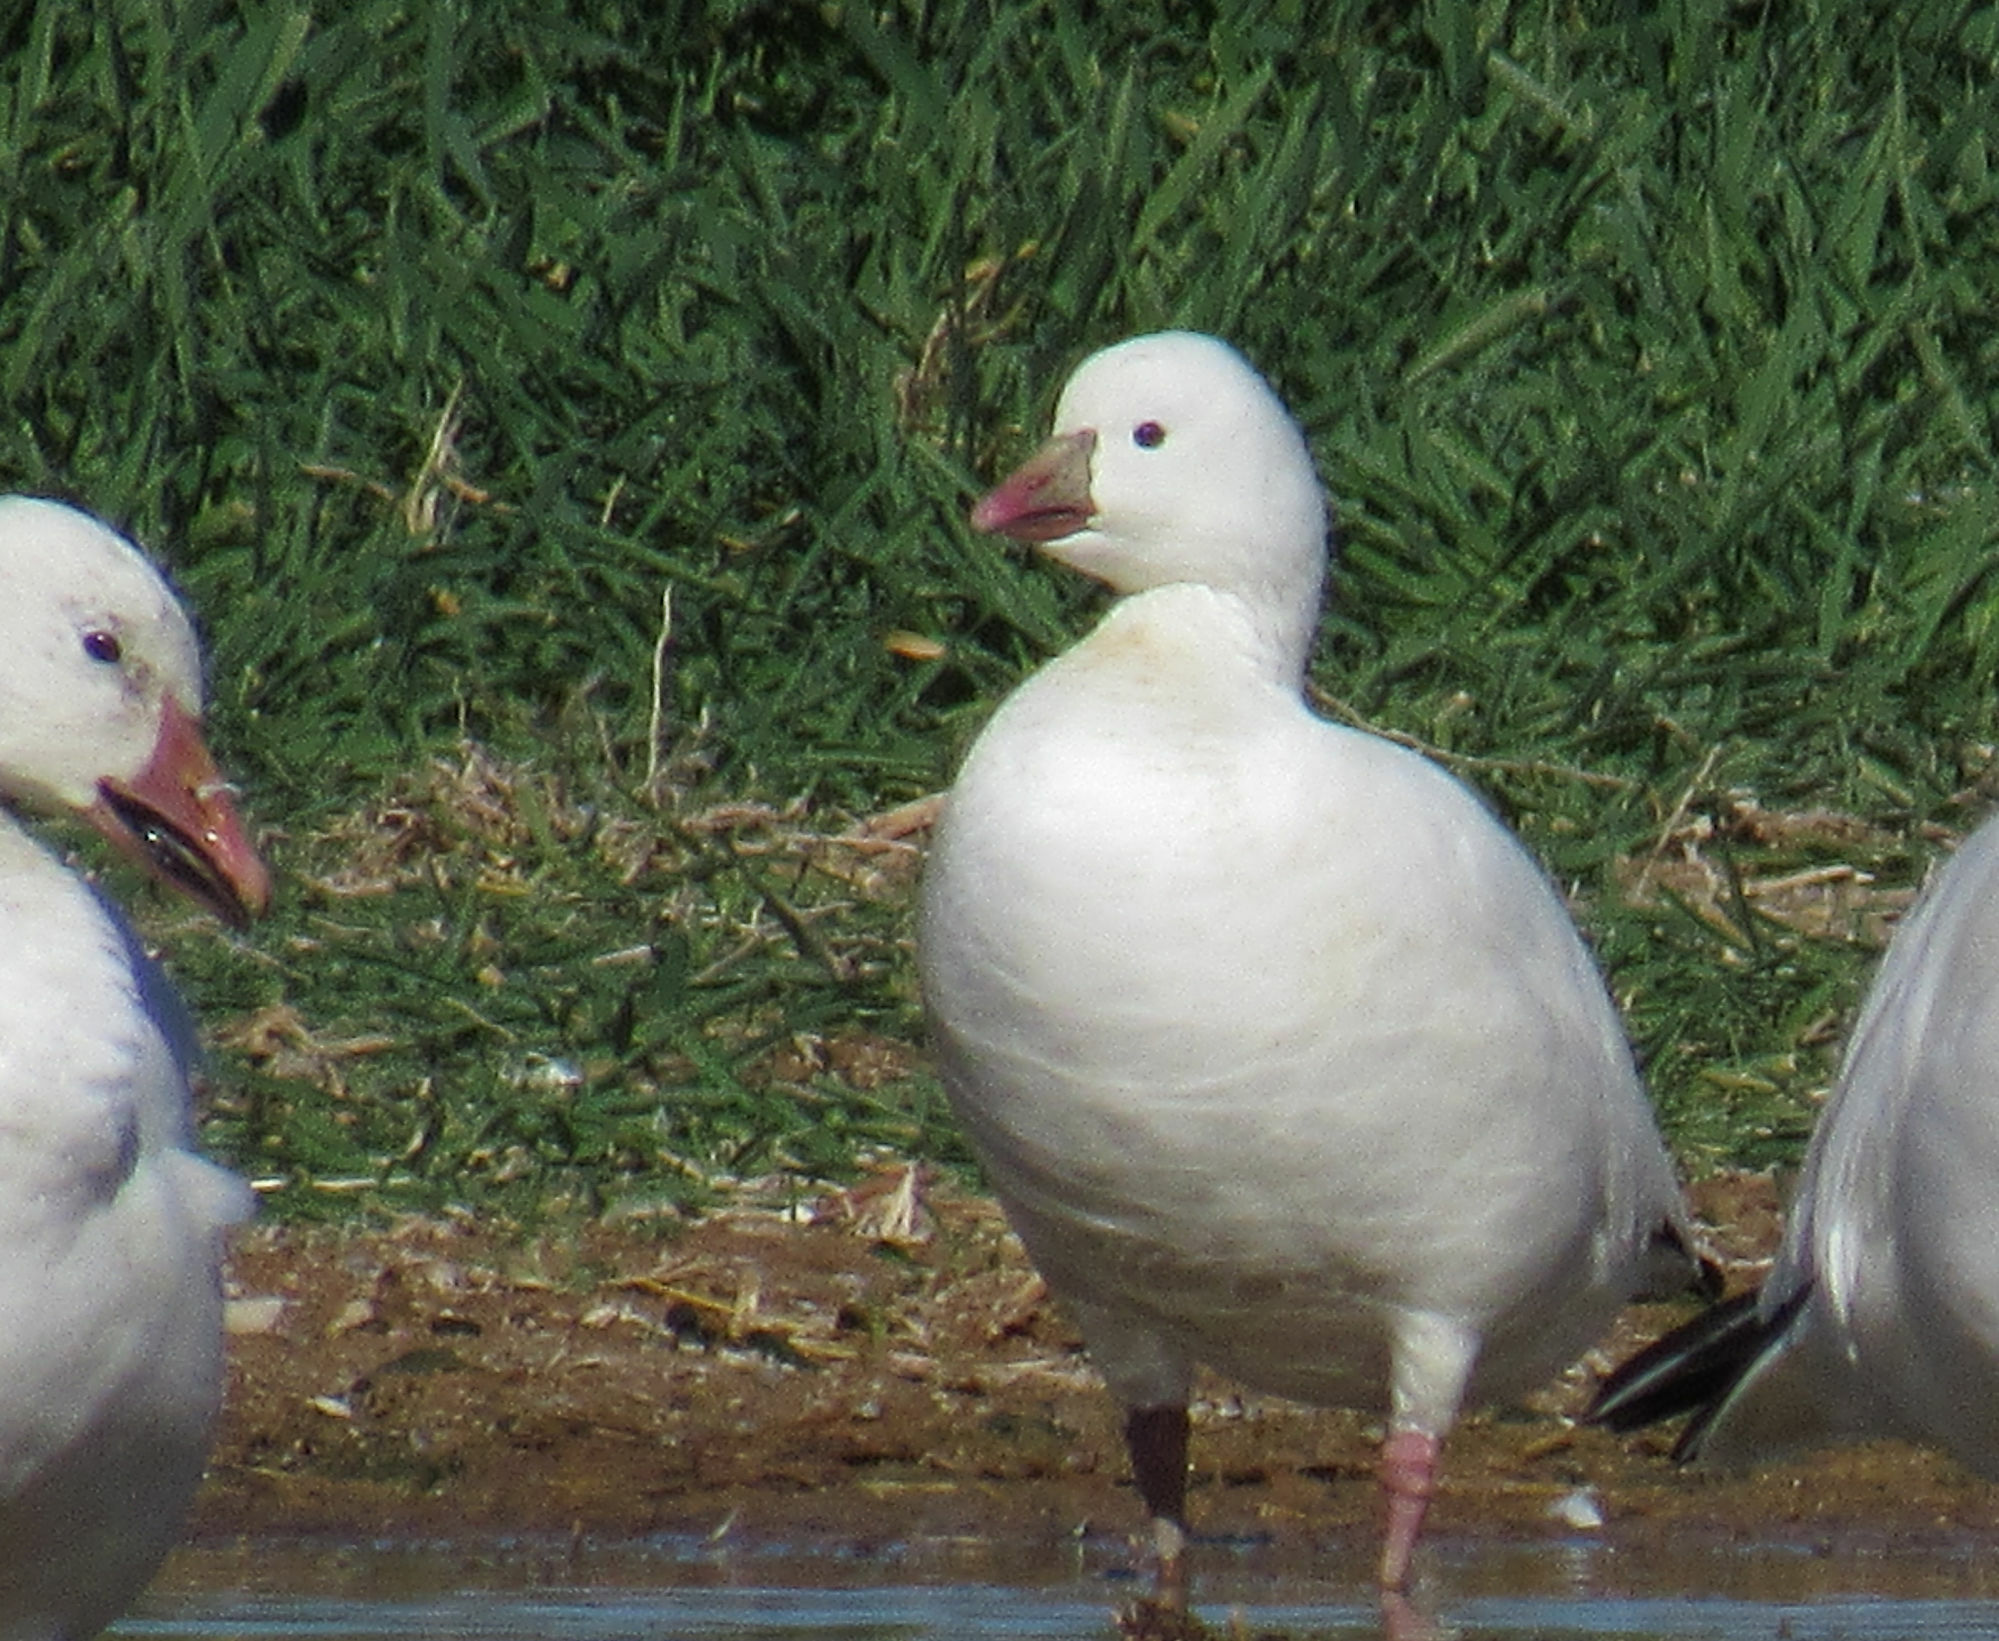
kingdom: Animalia
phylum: Chordata
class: Aves
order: Anseriformes
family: Anatidae
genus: Anser
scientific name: Anser rossii
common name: Ross's goose
